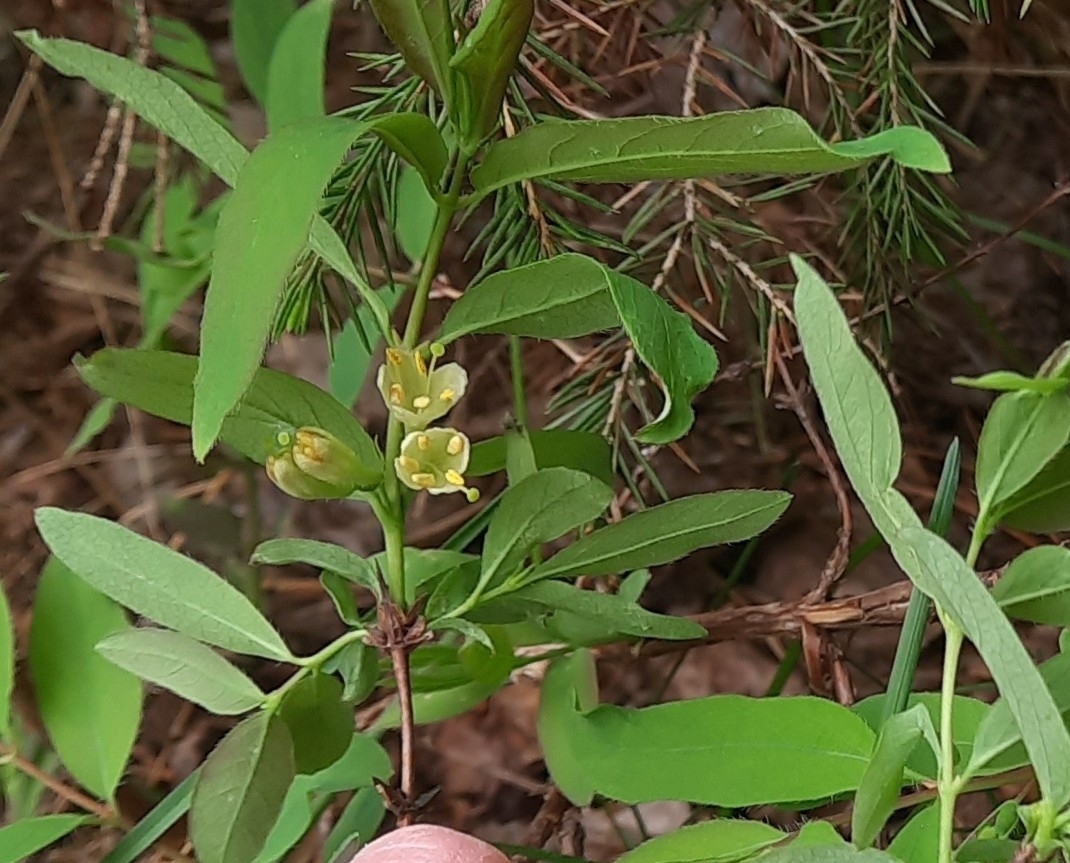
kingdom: Plantae
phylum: Tracheophyta
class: Magnoliopsida
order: Dipsacales
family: Caprifoliaceae
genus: Lonicera
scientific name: Lonicera caerulea
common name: Blue honeysuckle
